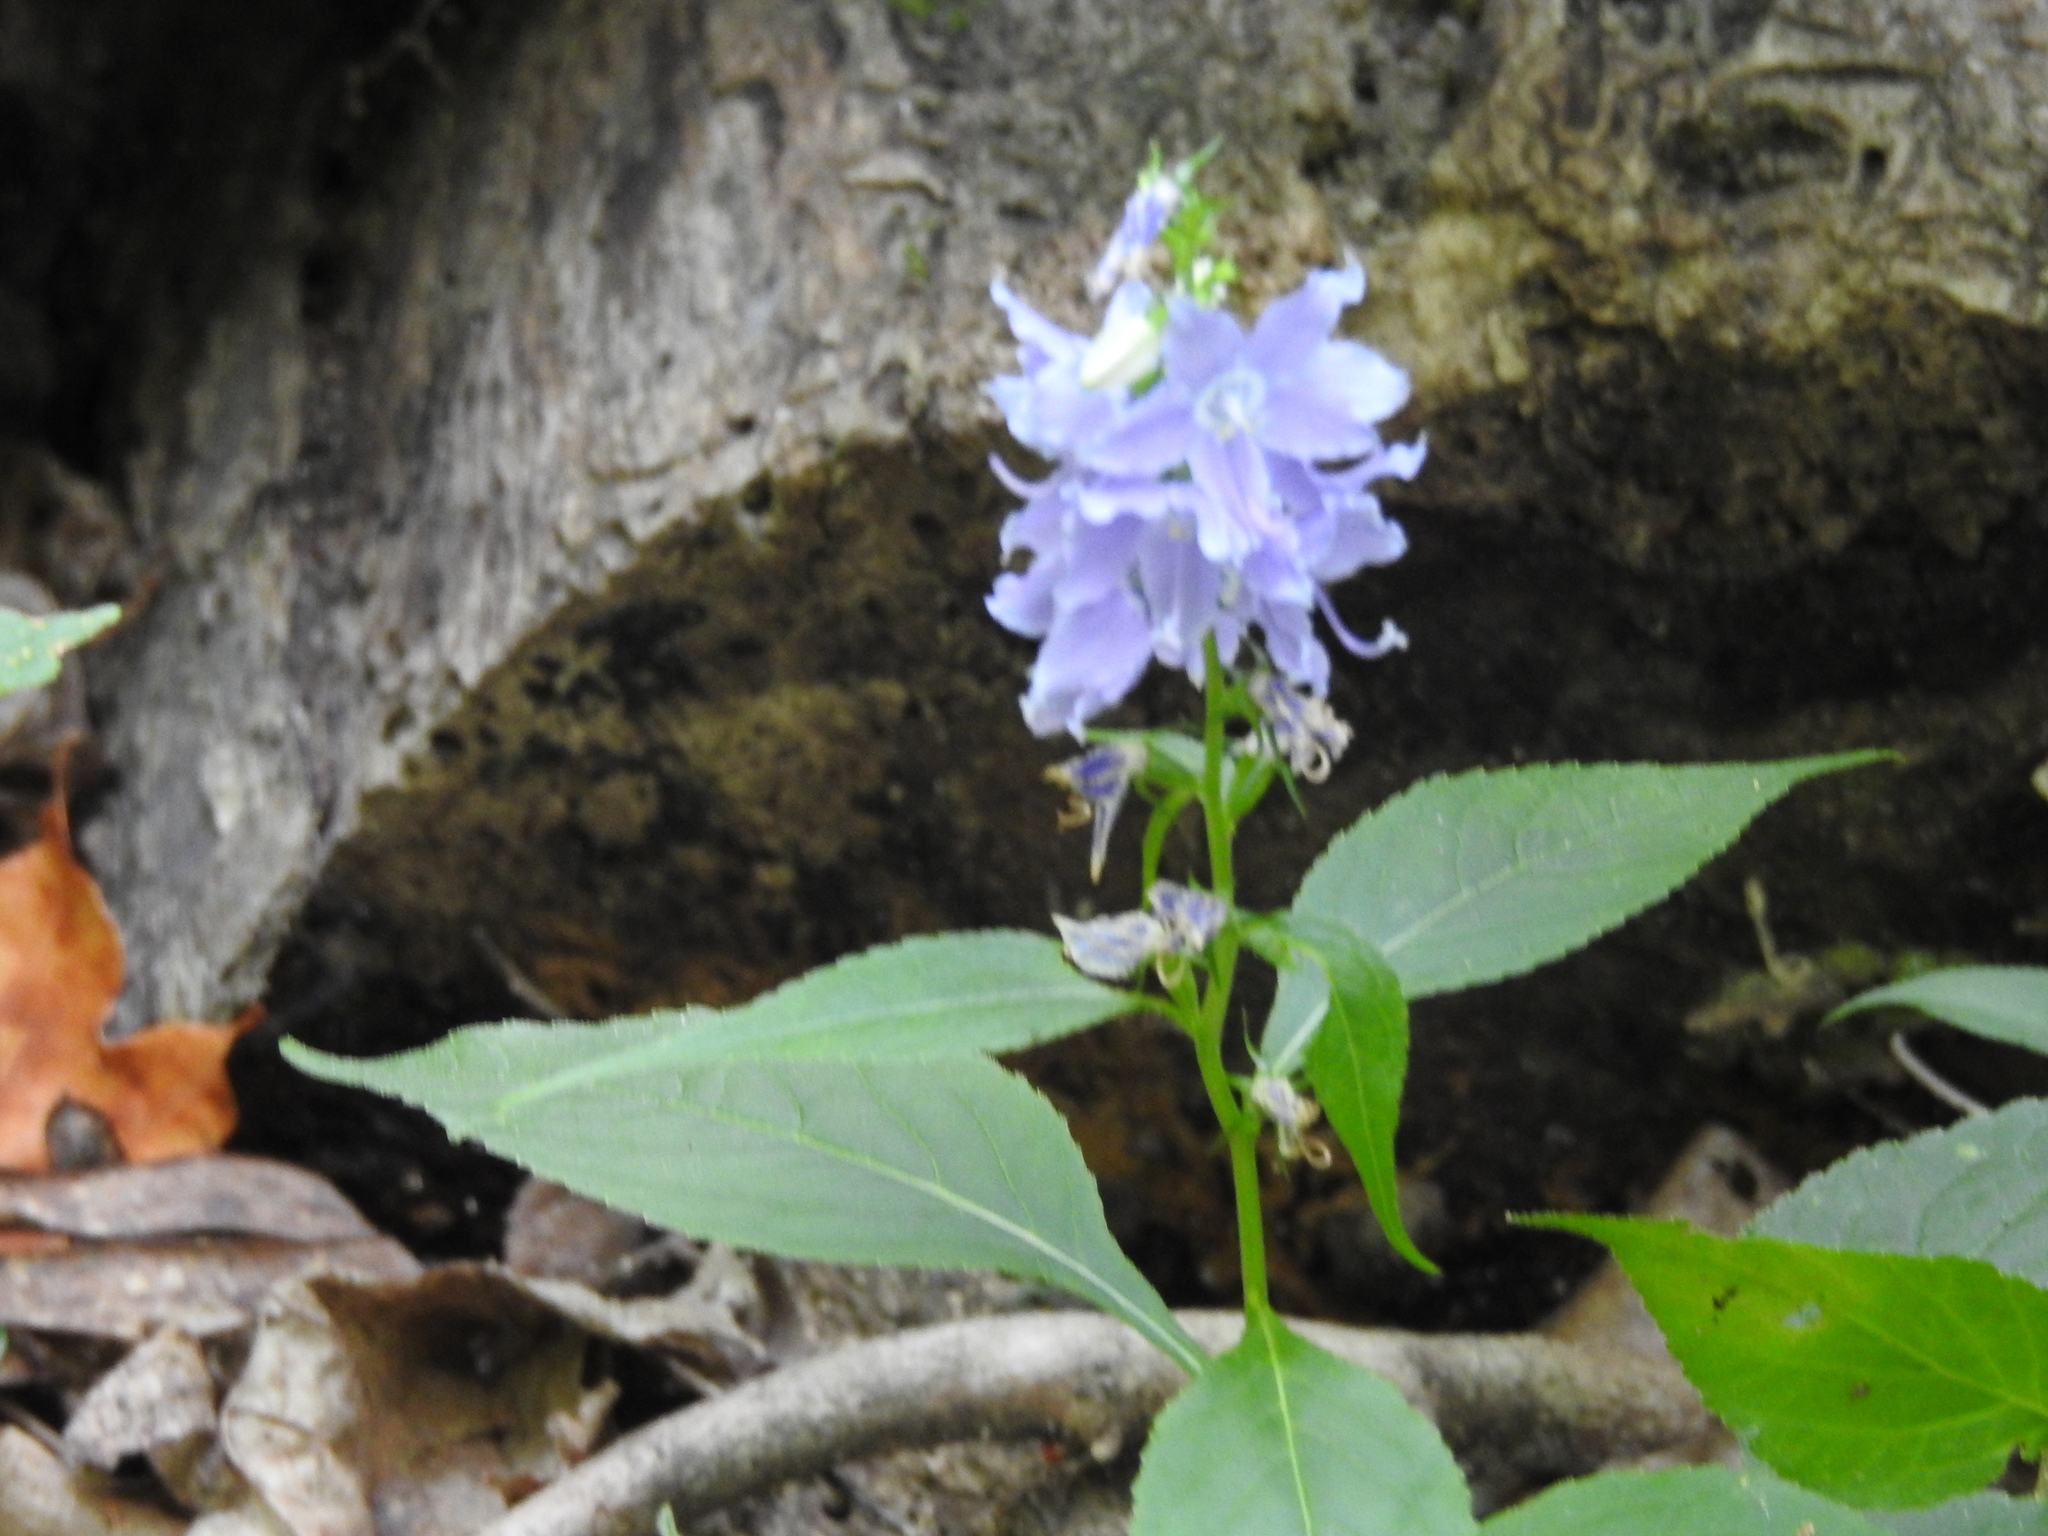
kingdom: Plantae
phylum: Tracheophyta
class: Magnoliopsida
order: Asterales
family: Campanulaceae
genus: Campanulastrum
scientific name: Campanulastrum americanum
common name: American bellflower
